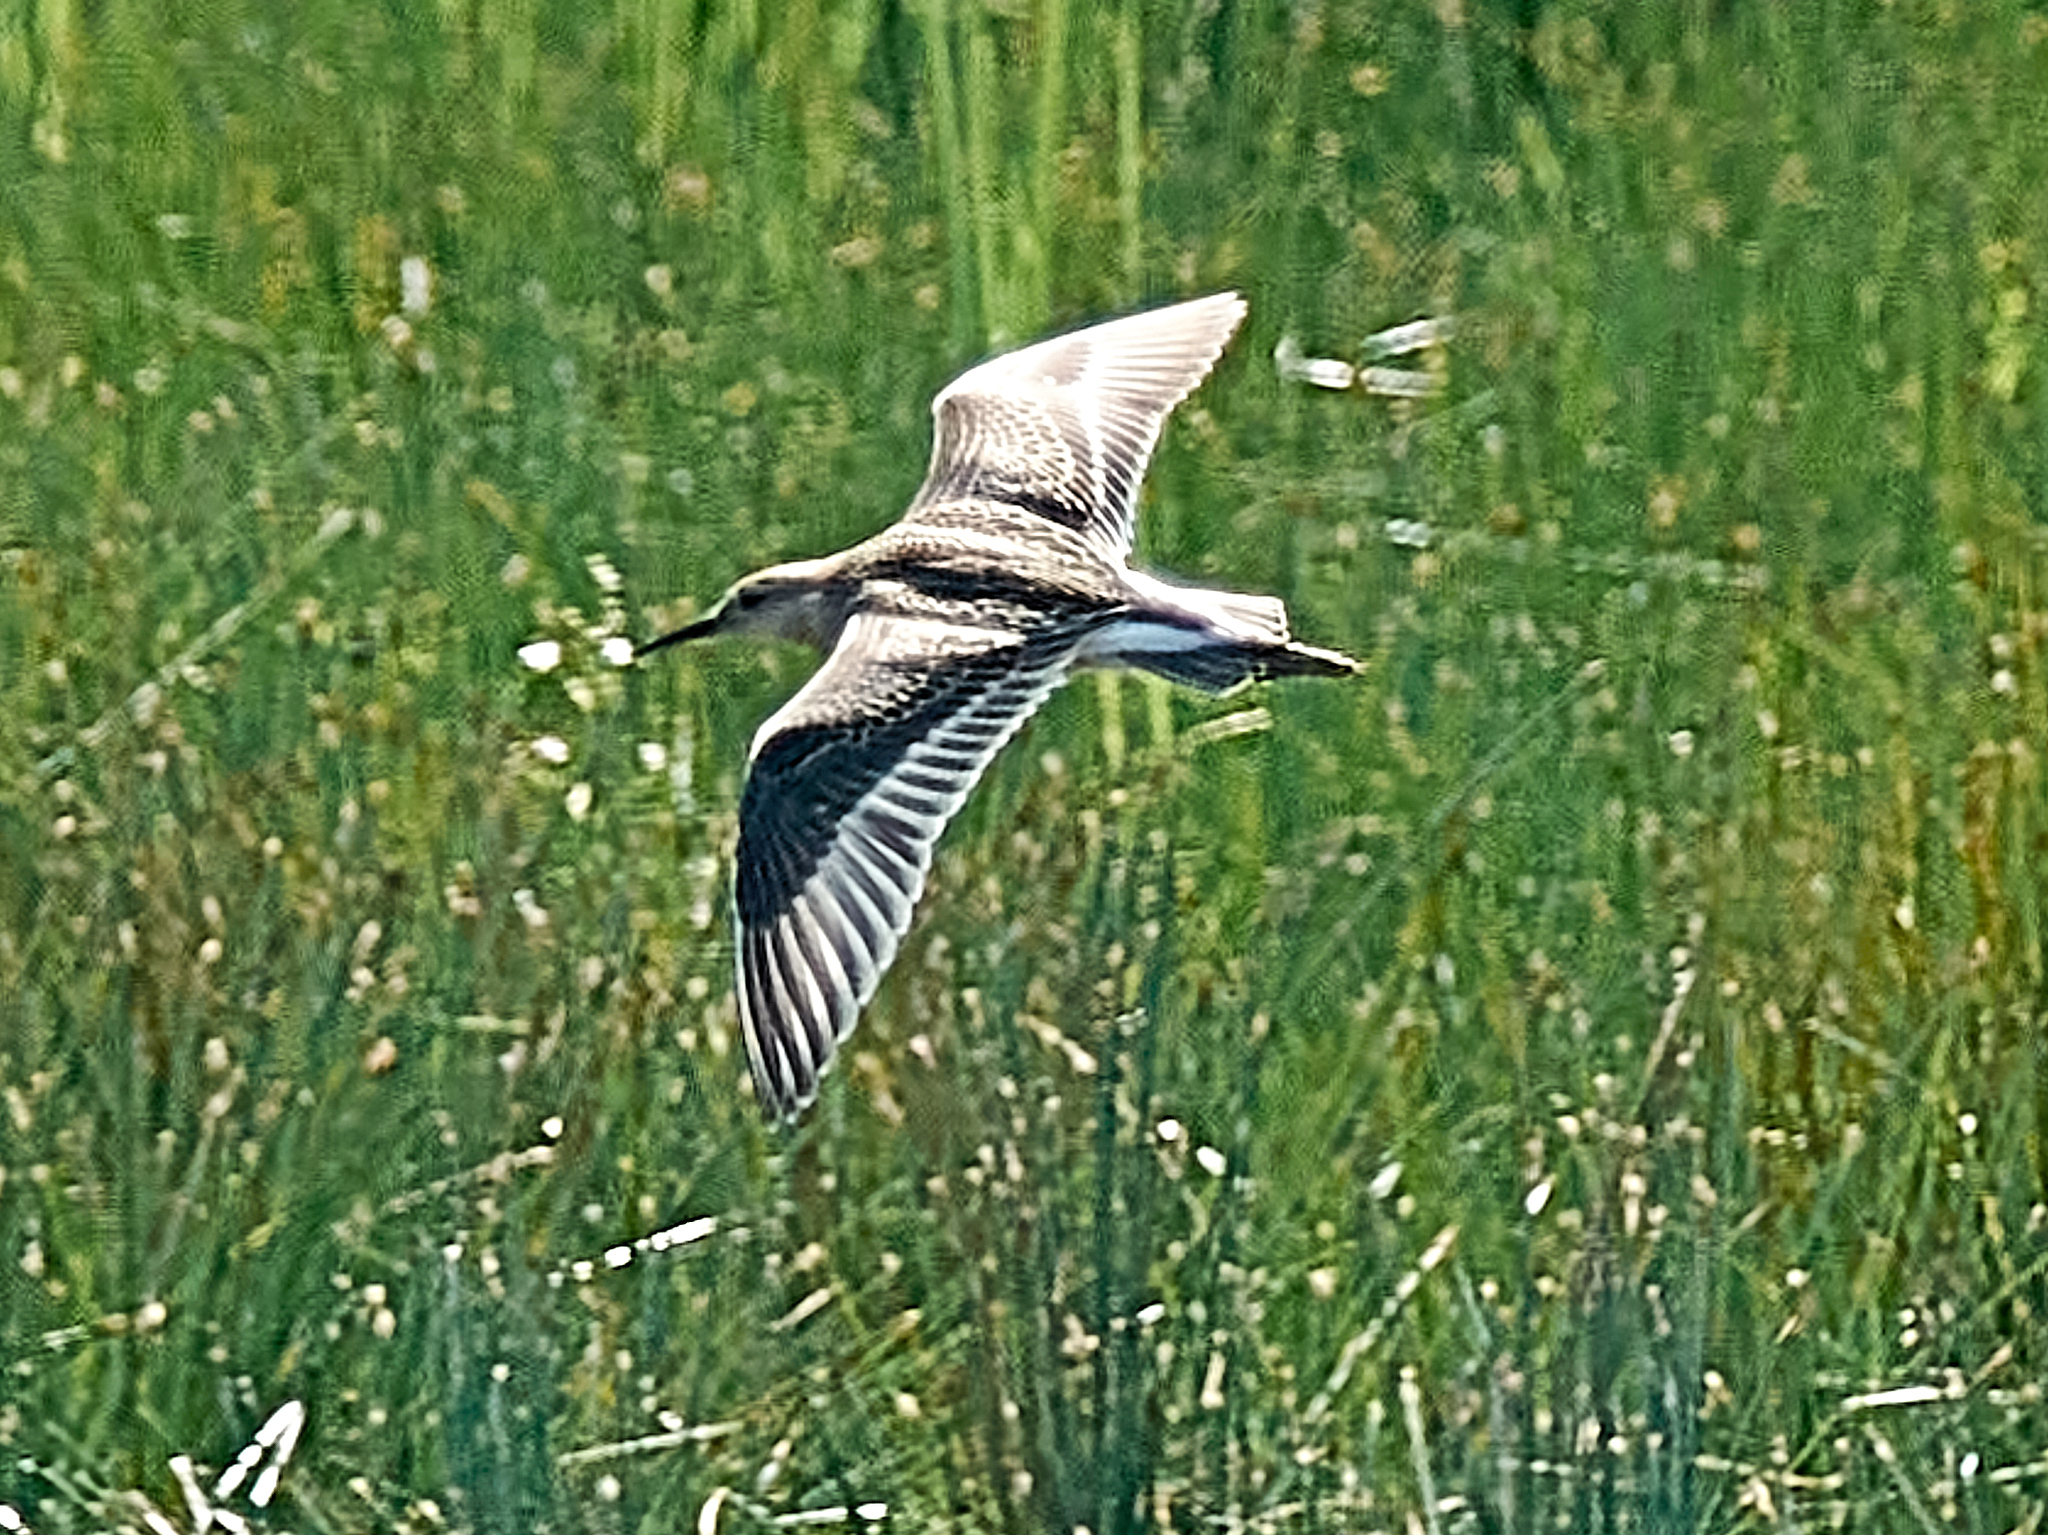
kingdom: Animalia
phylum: Chordata
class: Aves
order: Charadriiformes
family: Scolopacidae
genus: Calidris
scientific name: Calidris pugnax
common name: Ruff
